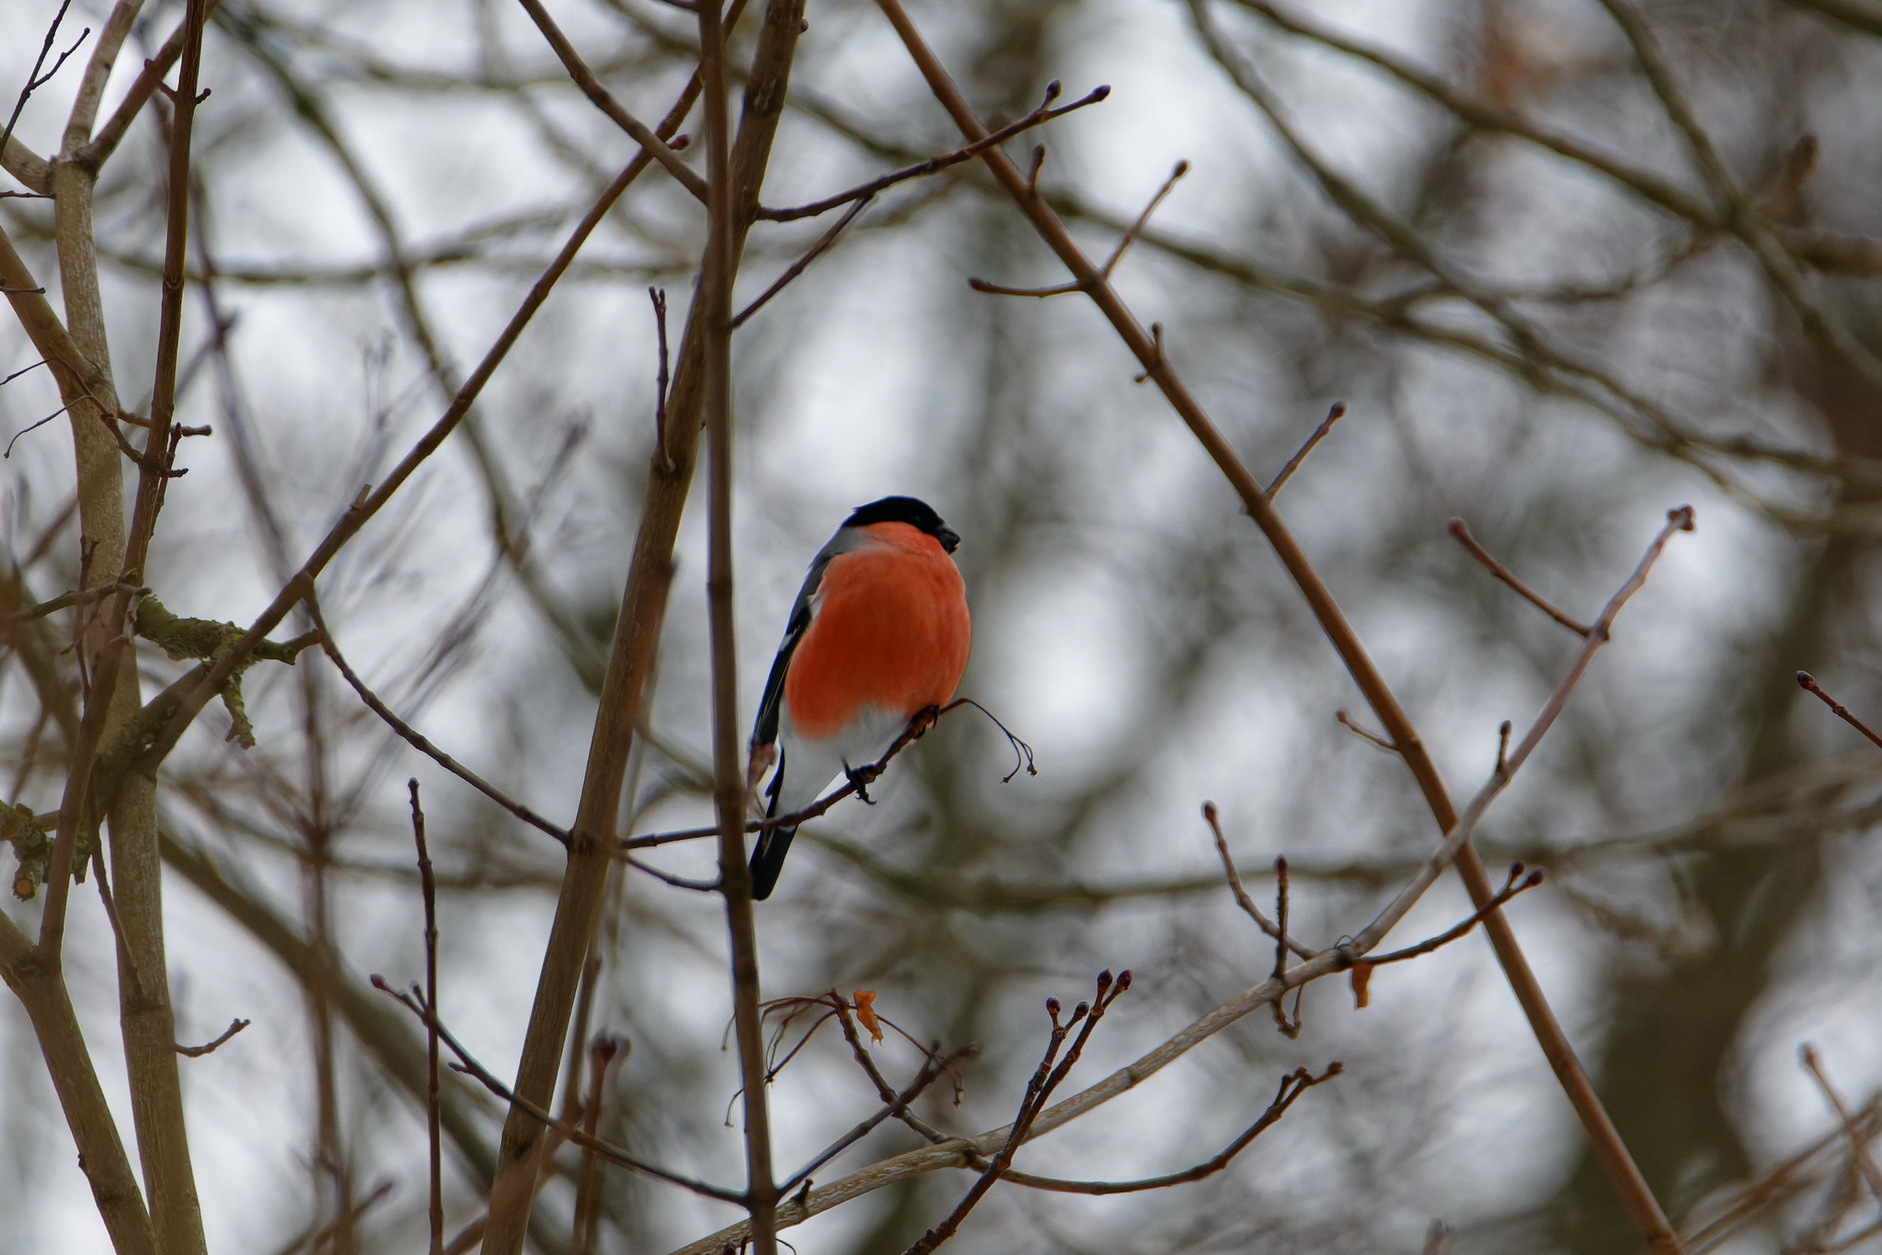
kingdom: Animalia
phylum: Chordata
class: Aves
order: Passeriformes
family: Fringillidae
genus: Pyrrhula
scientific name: Pyrrhula pyrrhula
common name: Eurasian bullfinch
